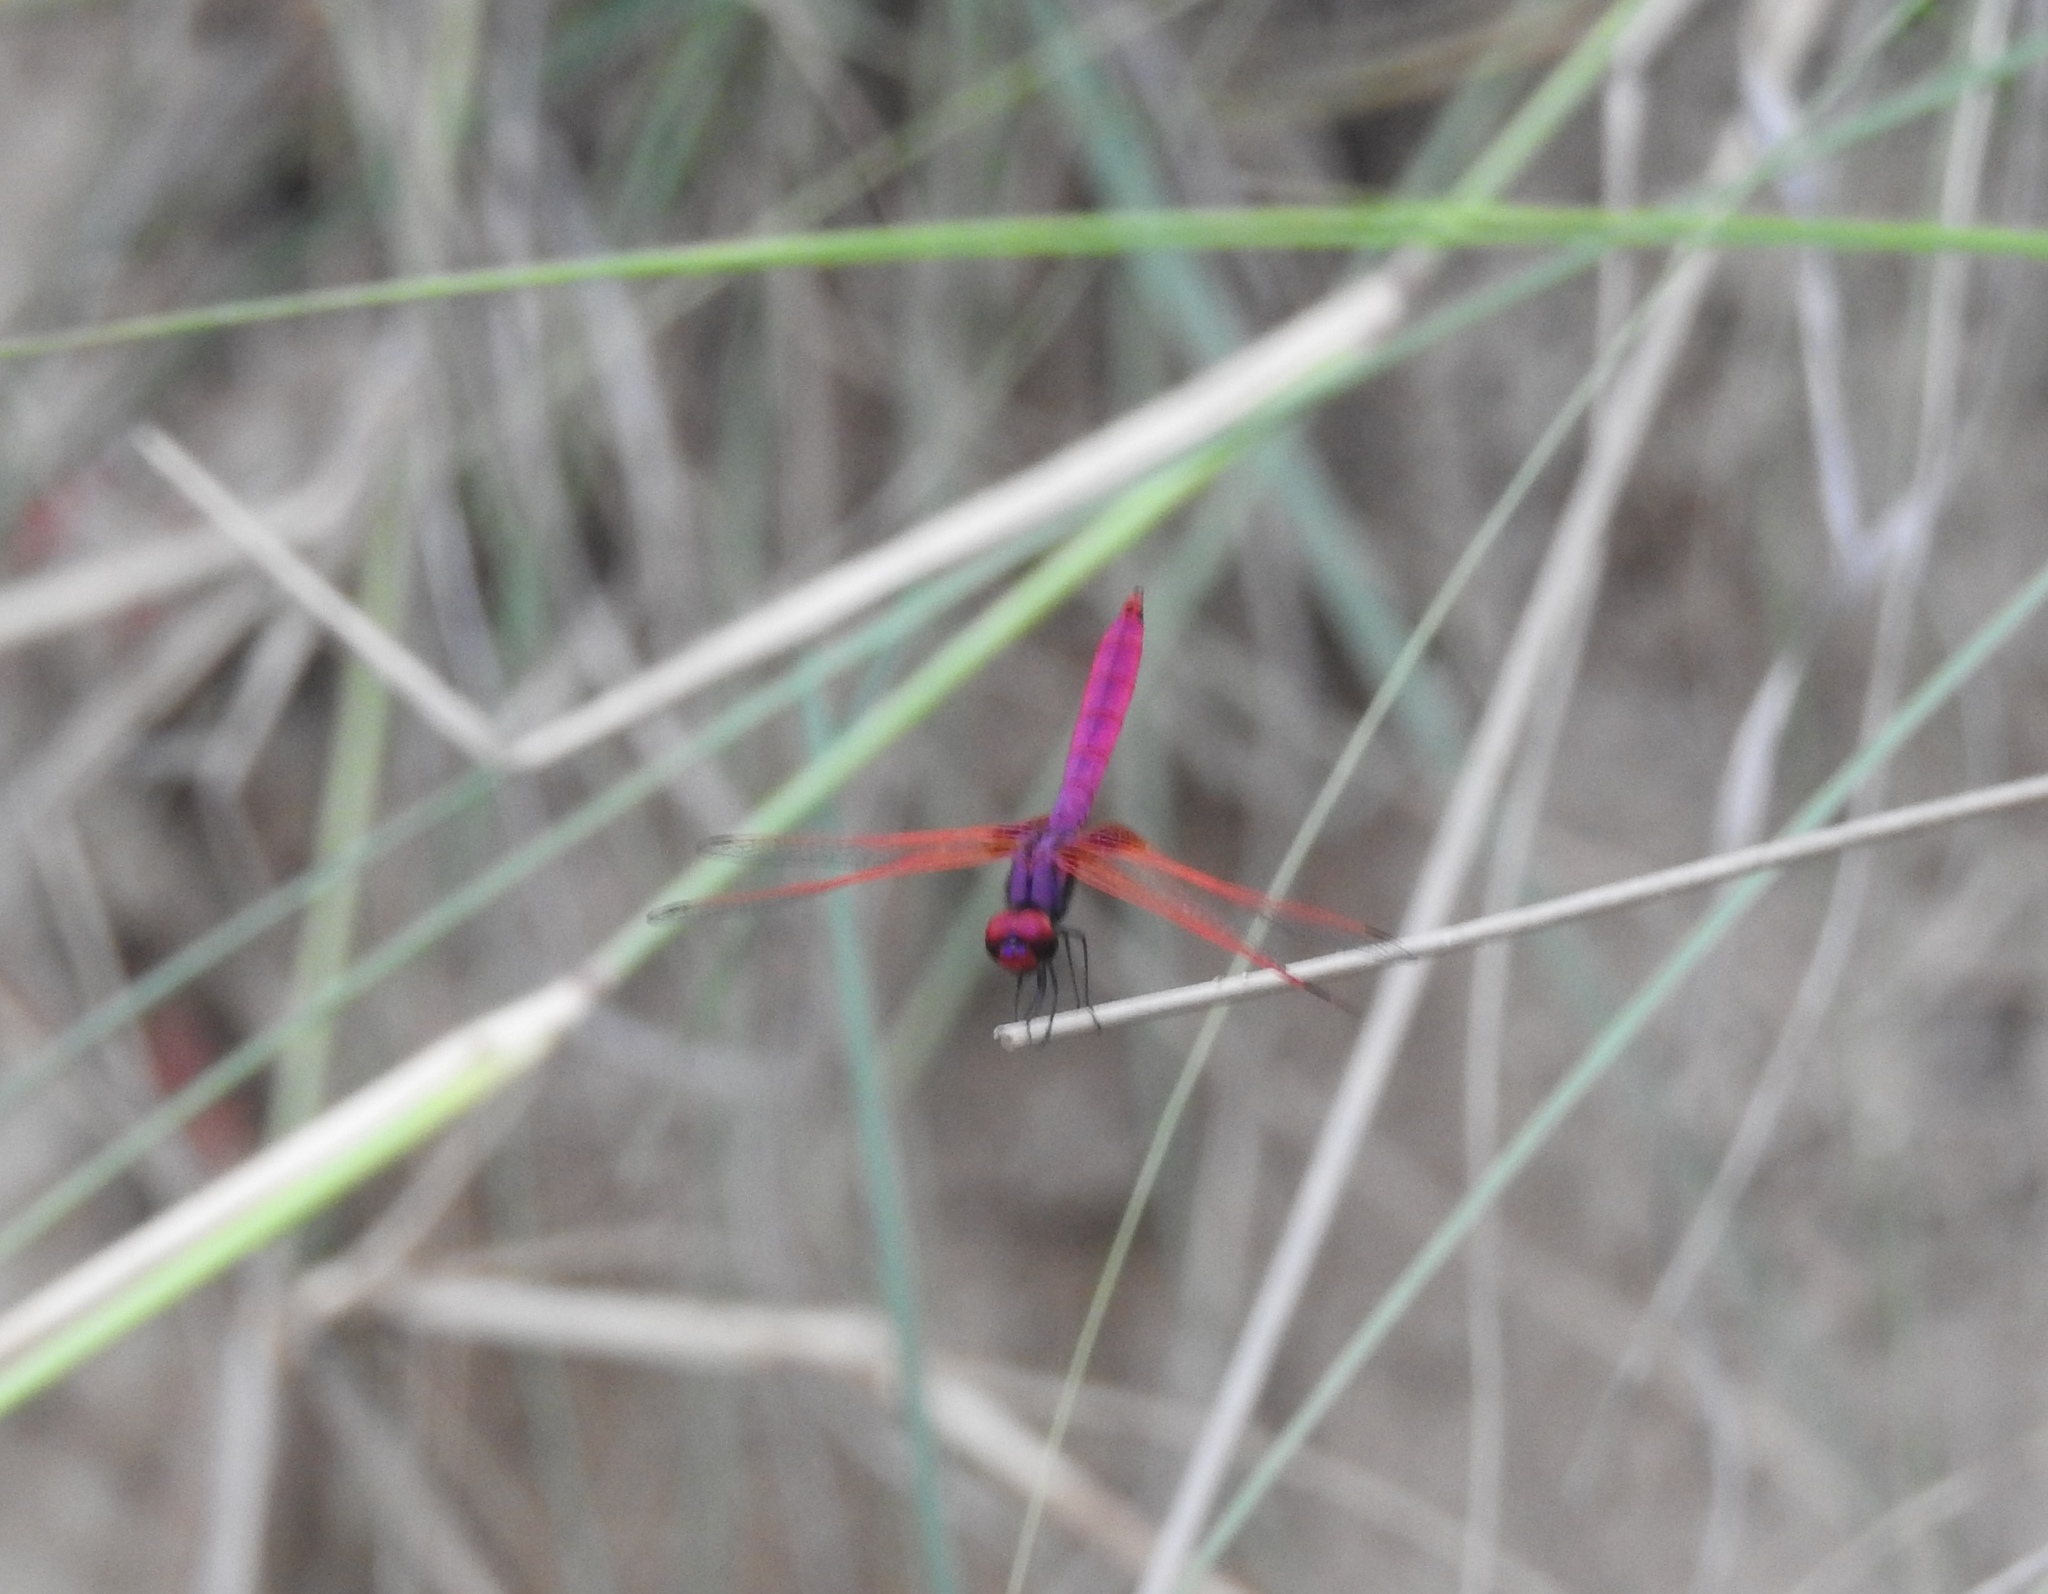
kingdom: Animalia
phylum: Arthropoda
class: Insecta
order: Odonata
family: Libellulidae
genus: Trithemis
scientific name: Trithemis aurora
